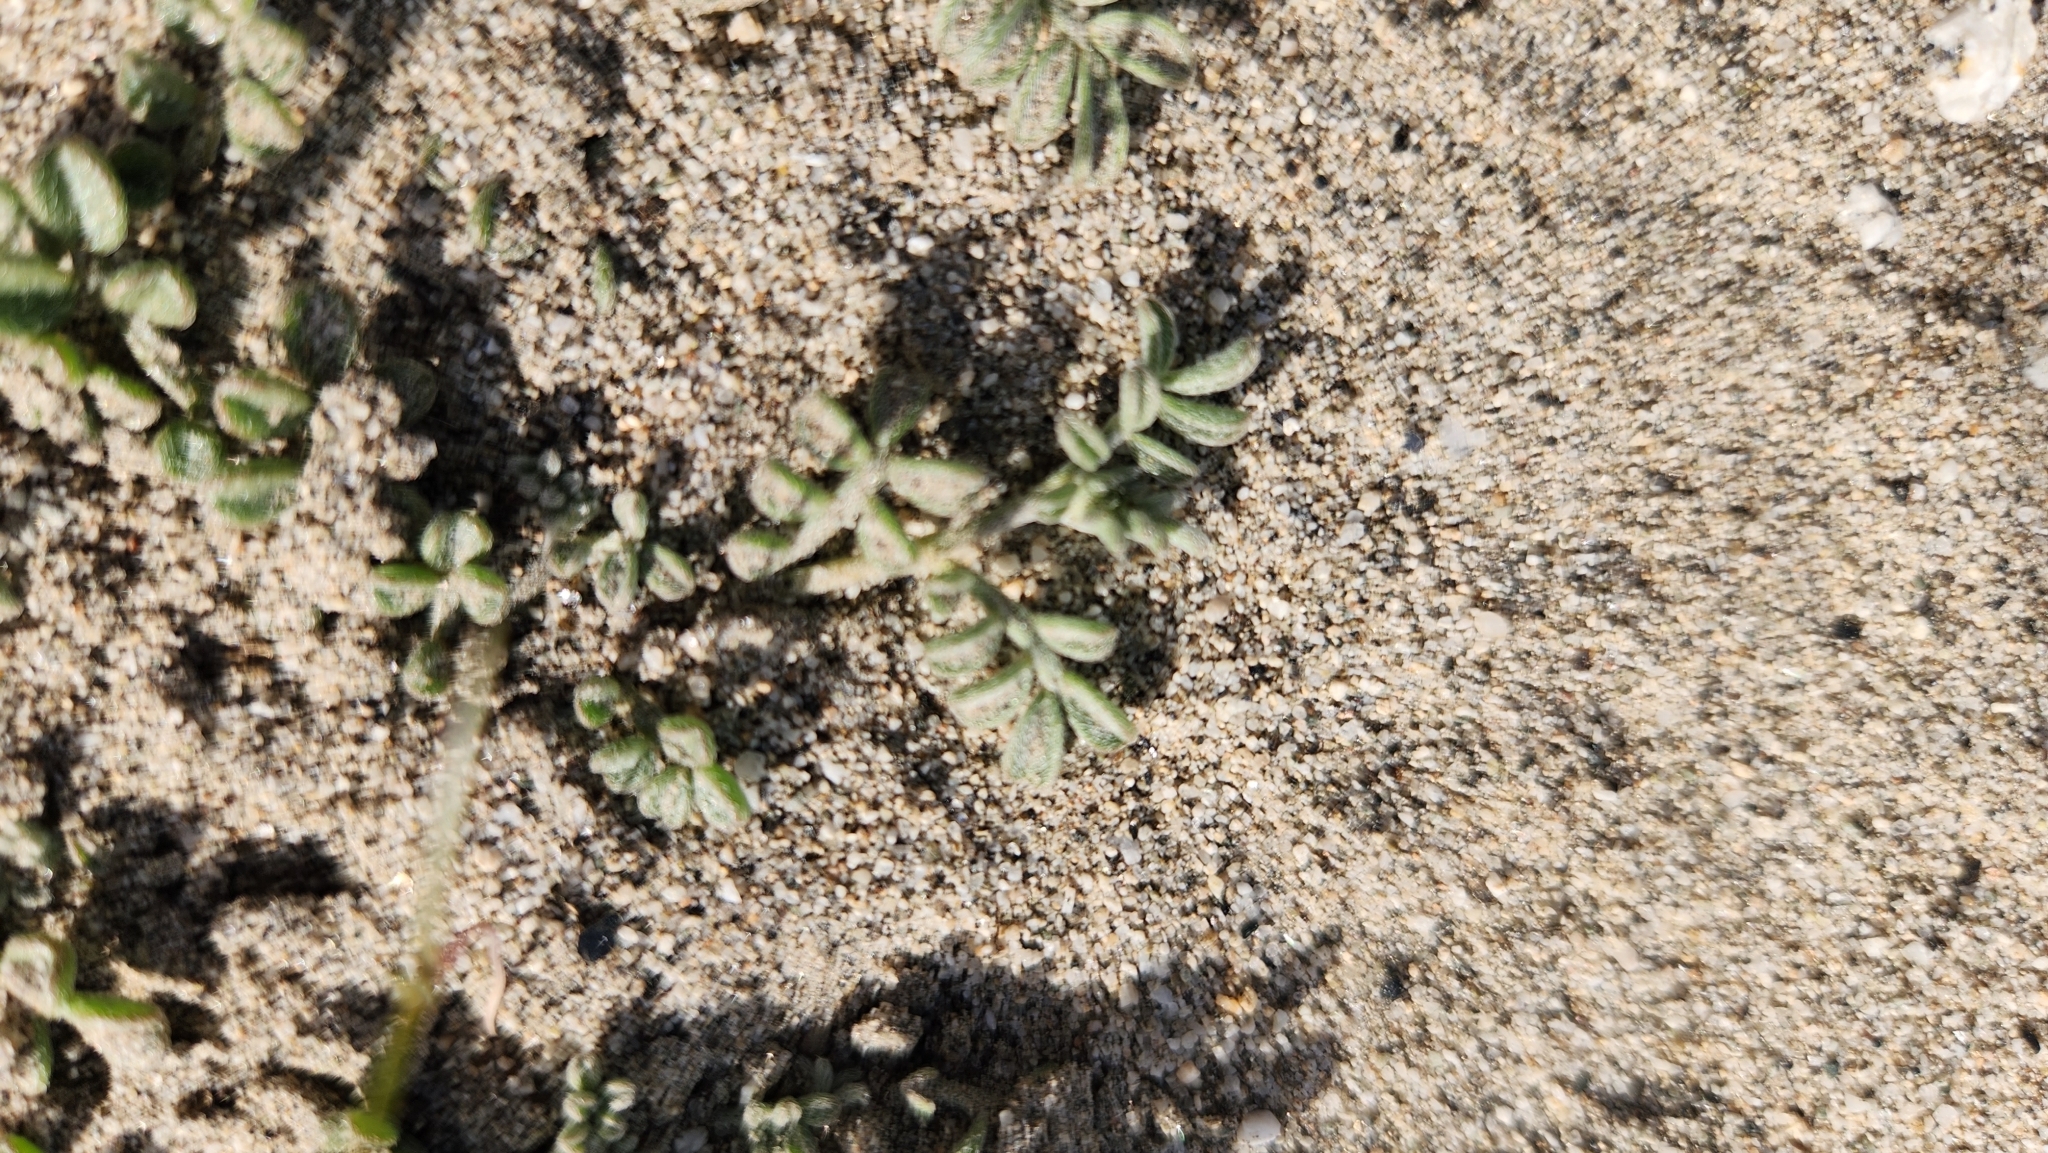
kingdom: Plantae
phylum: Tracheophyta
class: Magnoliopsida
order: Fabales
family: Fabaceae
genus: Acmispon
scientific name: Acmispon strigosus
